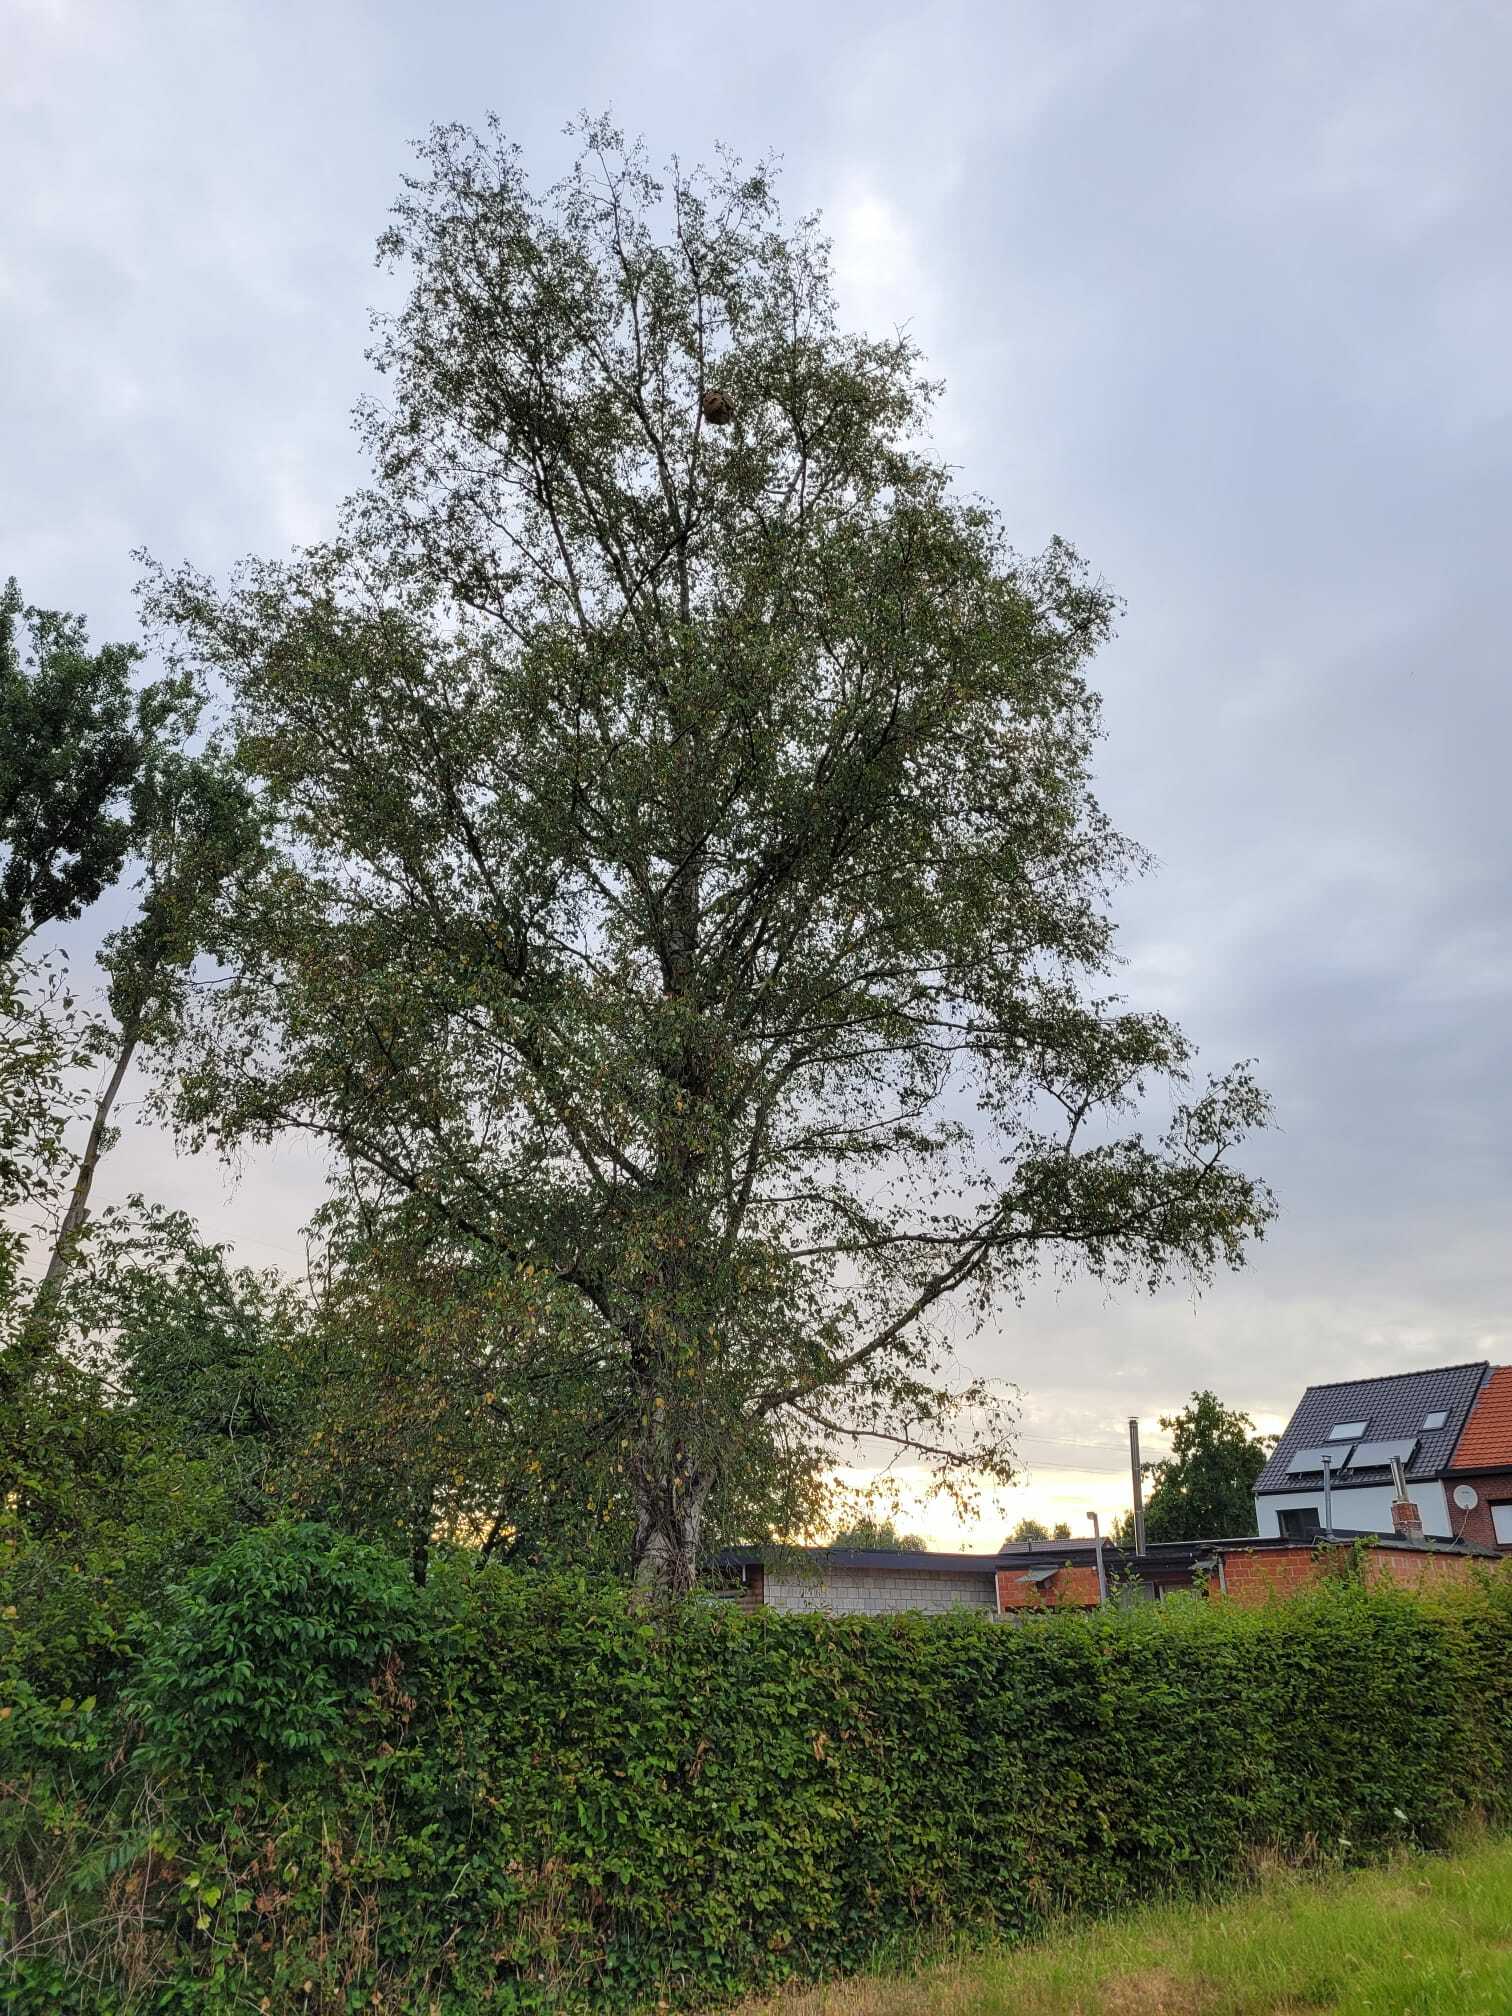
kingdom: Animalia
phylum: Arthropoda
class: Insecta
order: Hymenoptera
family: Vespidae
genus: Vespa
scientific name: Vespa velutina
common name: Asian hornet
